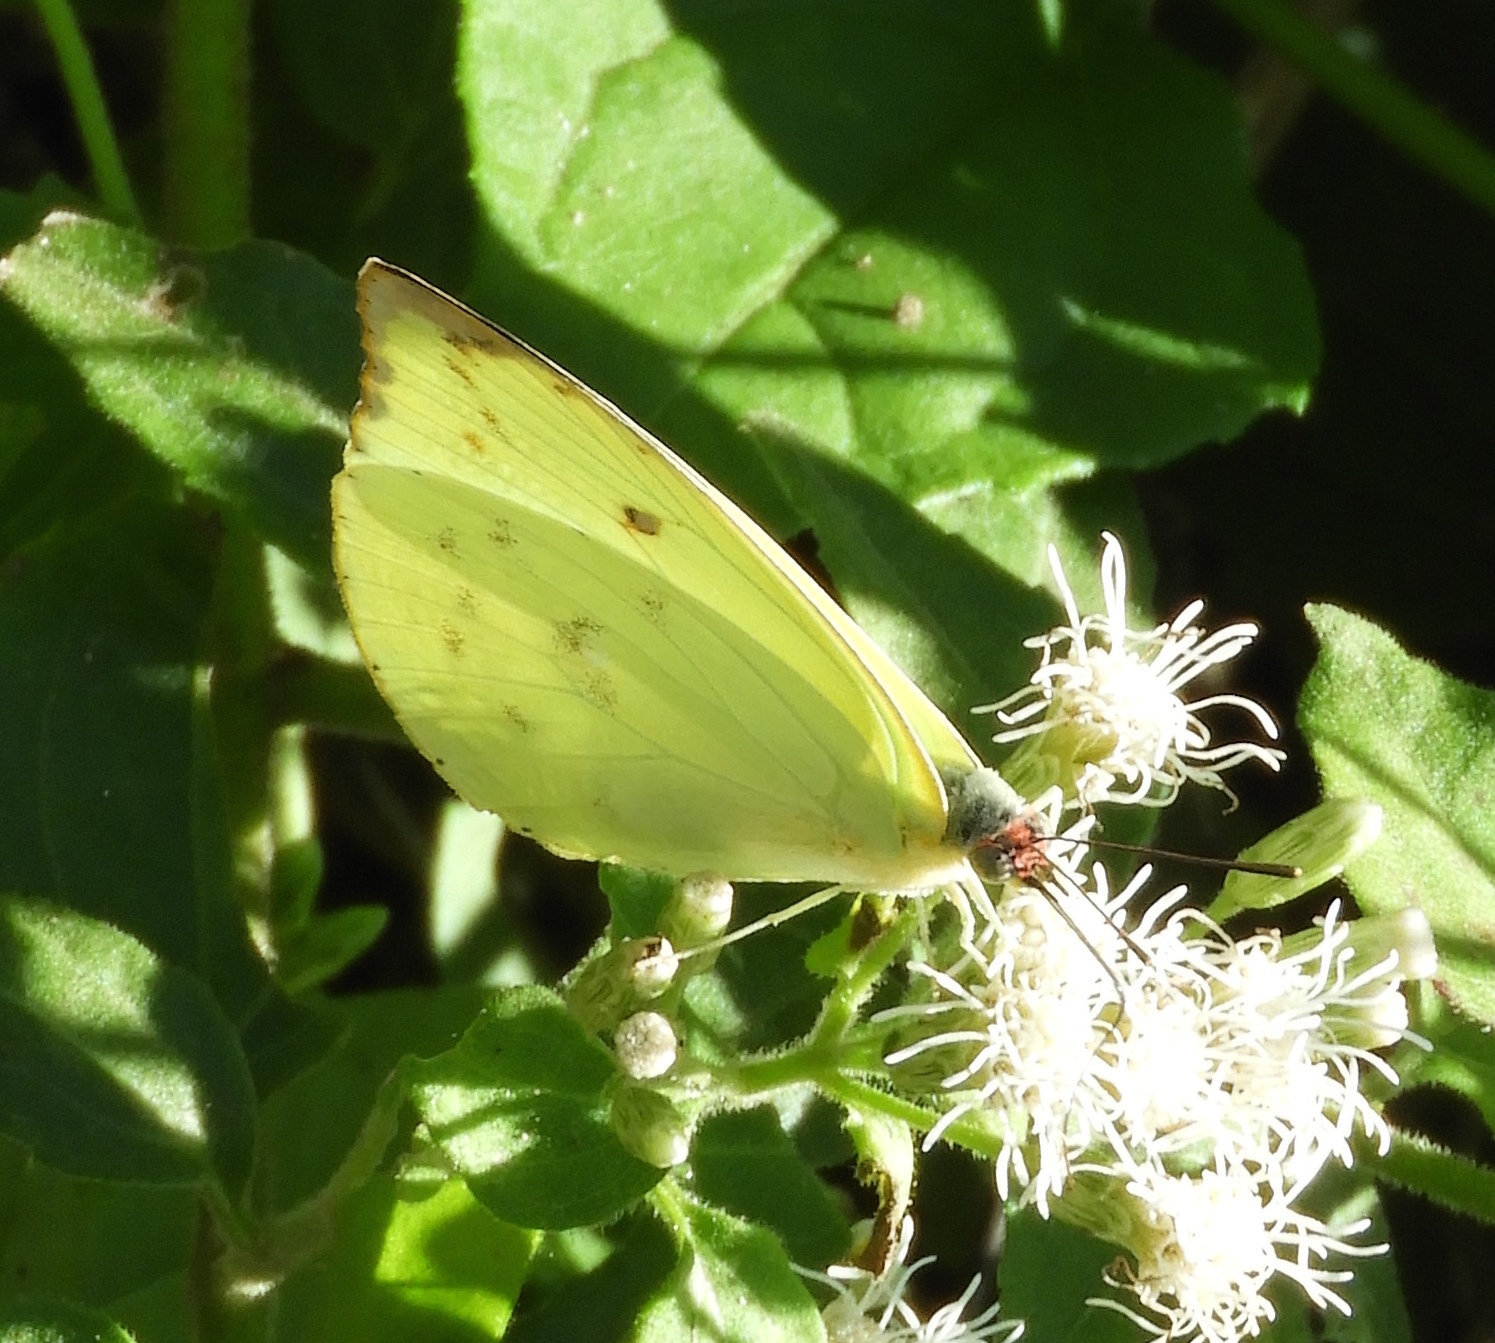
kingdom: Animalia
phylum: Arthropoda
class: Insecta
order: Lepidoptera
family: Pieridae
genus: Aphrissa
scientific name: Aphrissa statira
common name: Statira sulphur
